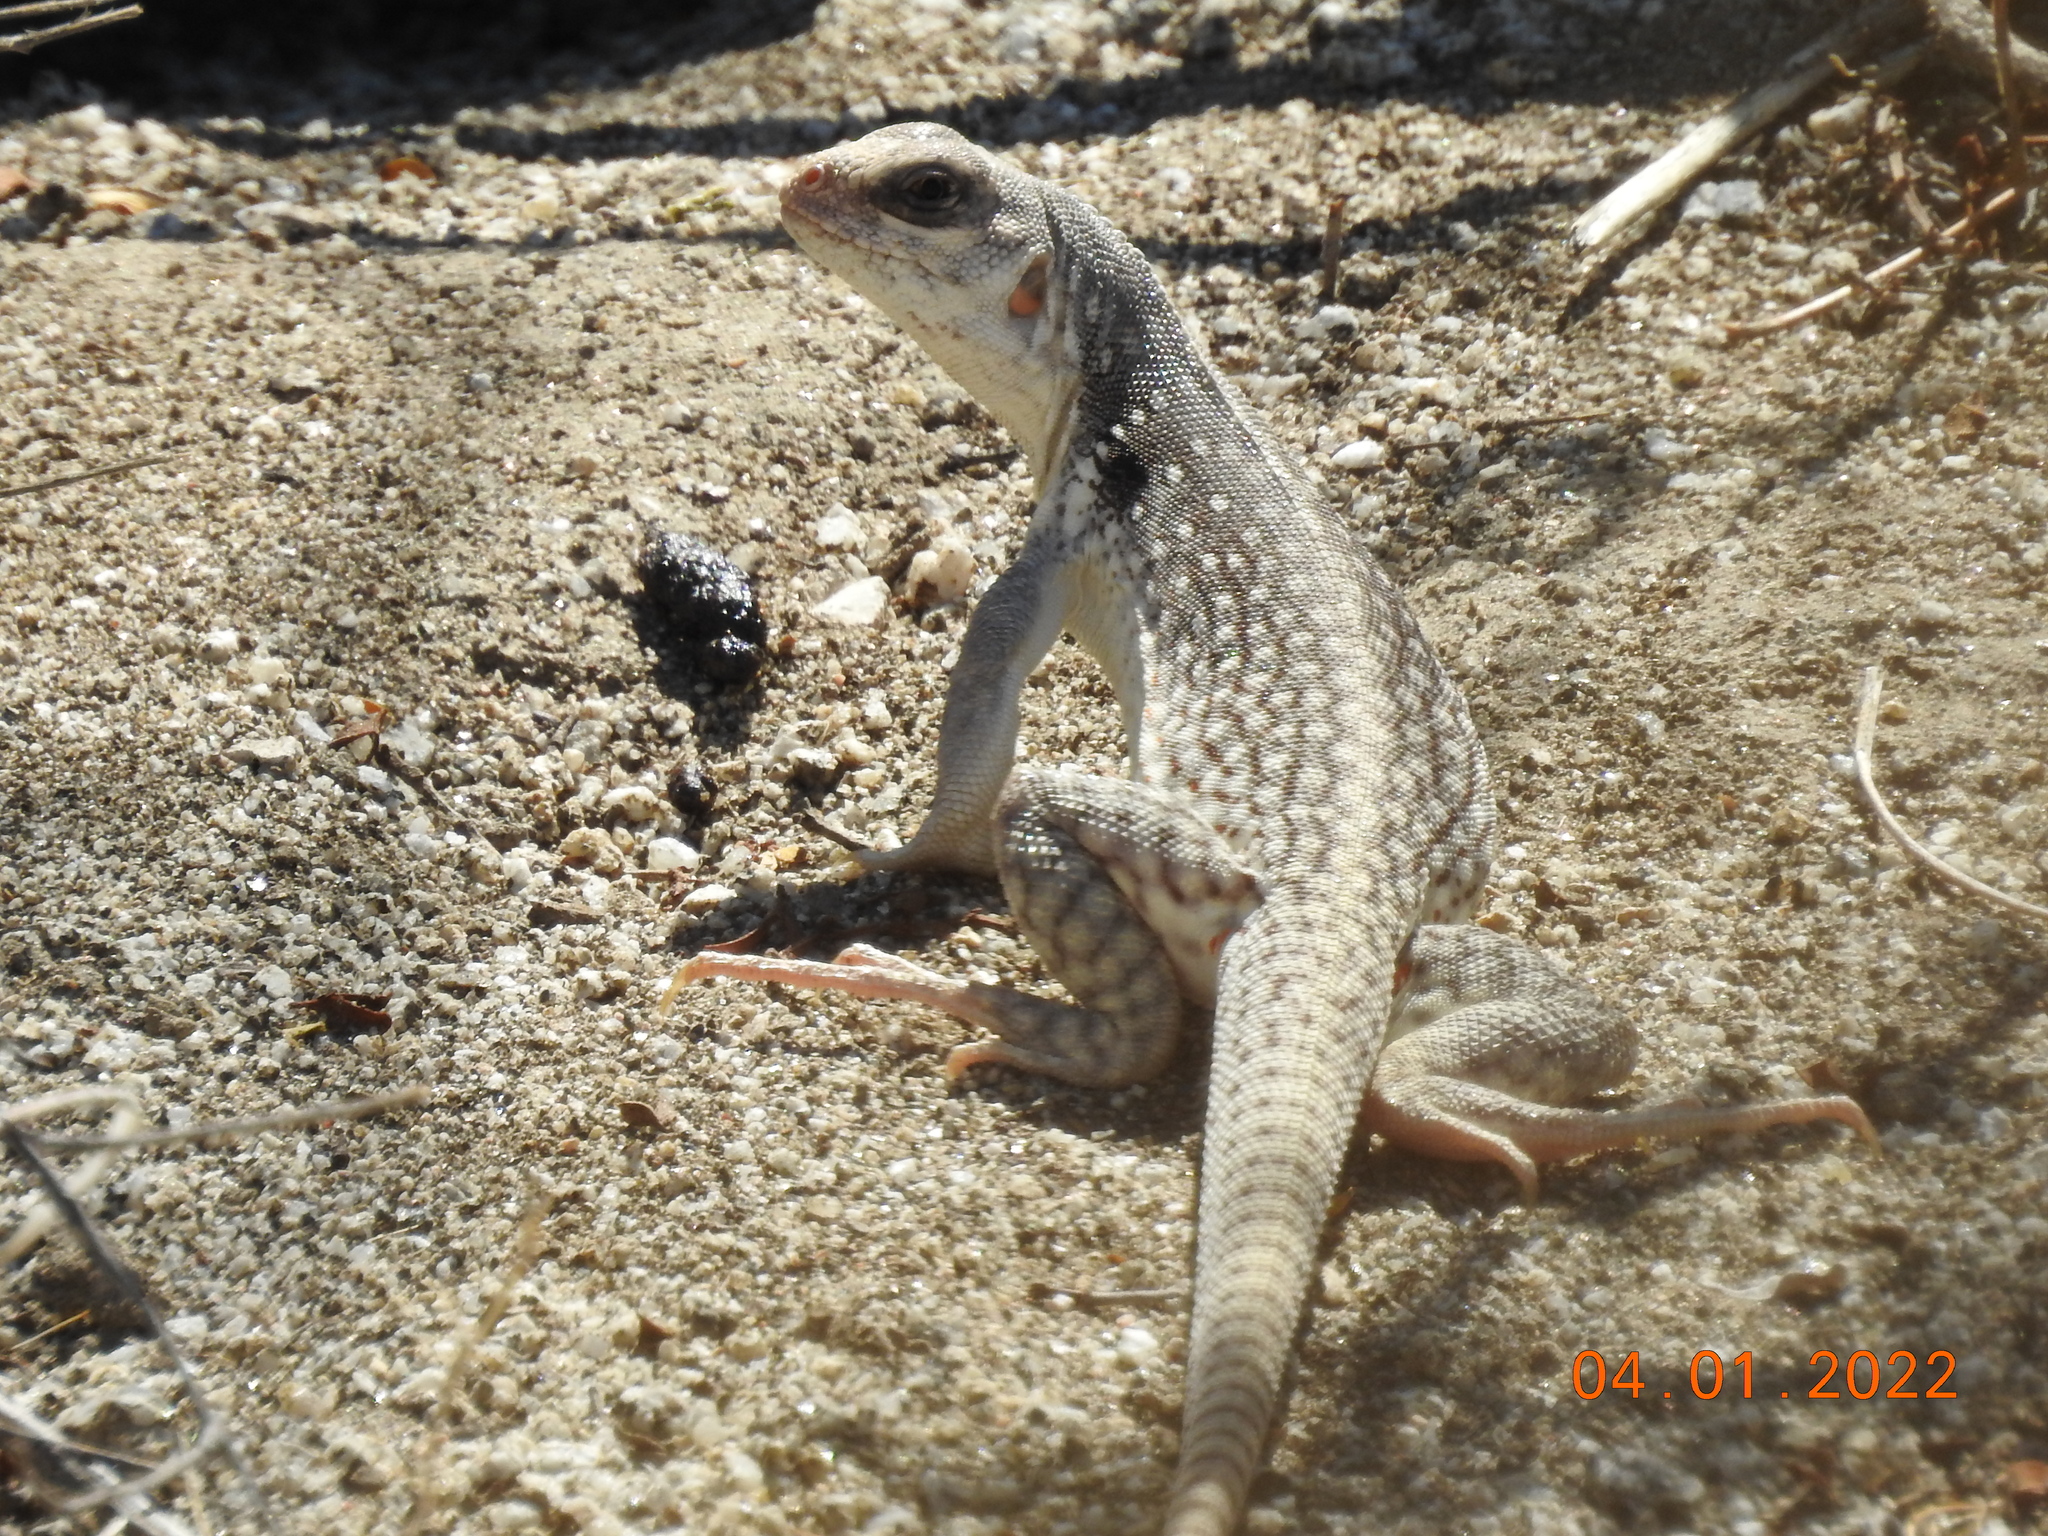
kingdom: Animalia
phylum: Chordata
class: Squamata
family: Iguanidae
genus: Dipsosaurus
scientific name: Dipsosaurus dorsalis
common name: Desert iguana
